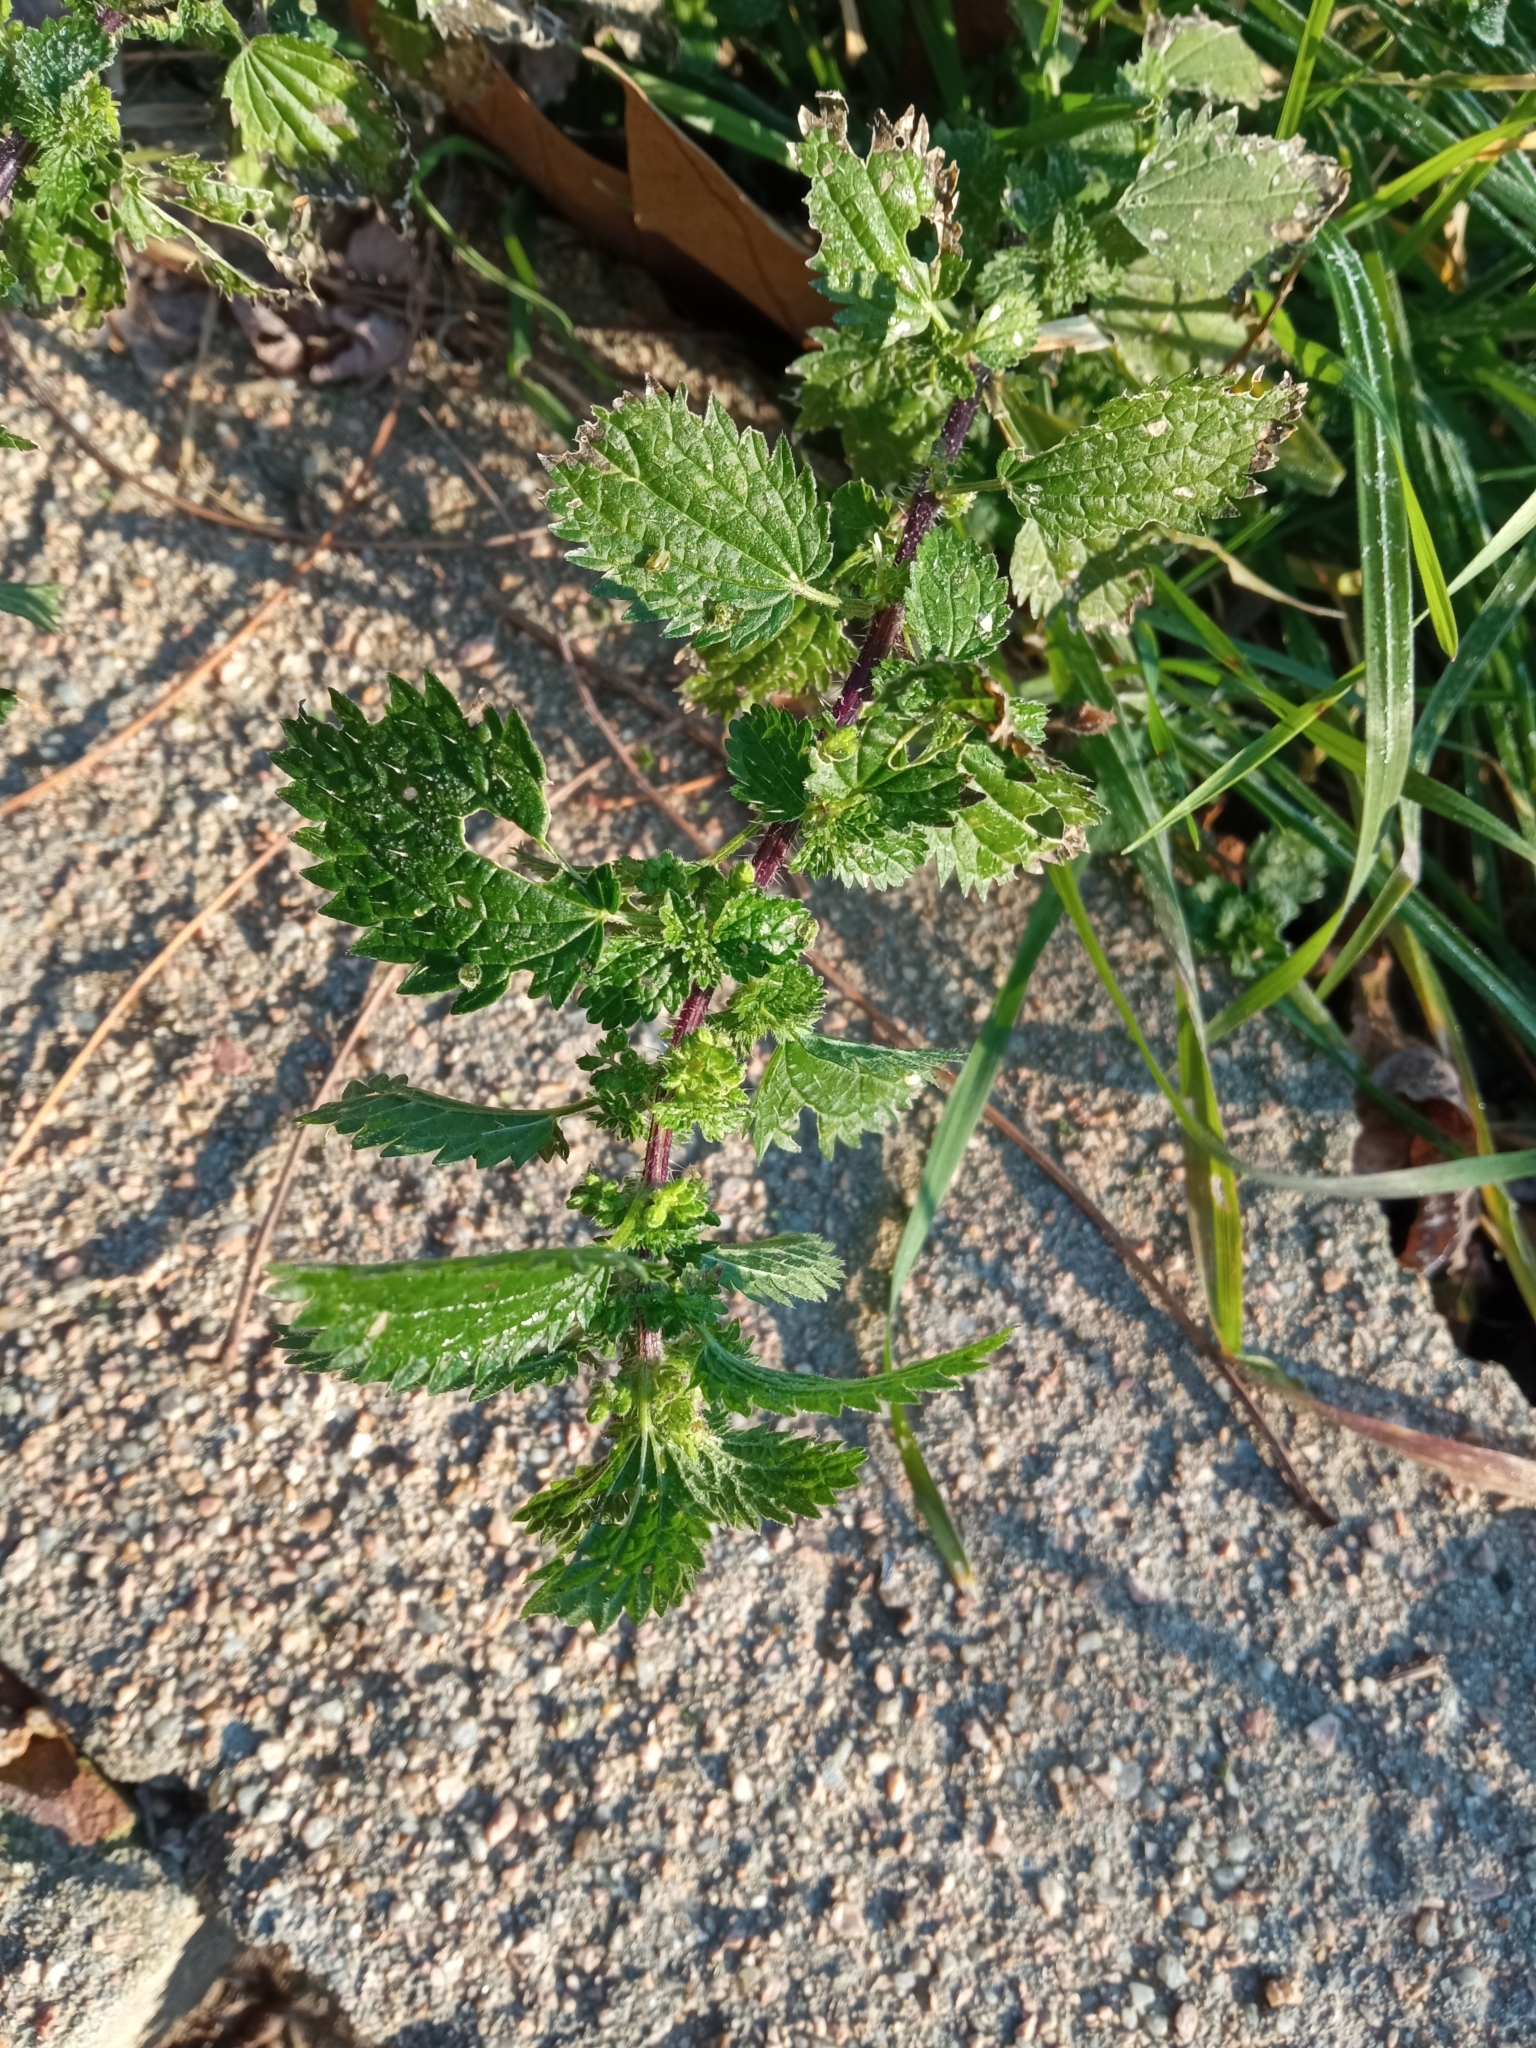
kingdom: Plantae
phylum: Tracheophyta
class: Magnoliopsida
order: Rosales
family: Urticaceae
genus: Urtica
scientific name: Urtica urens
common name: Dwarf nettle
